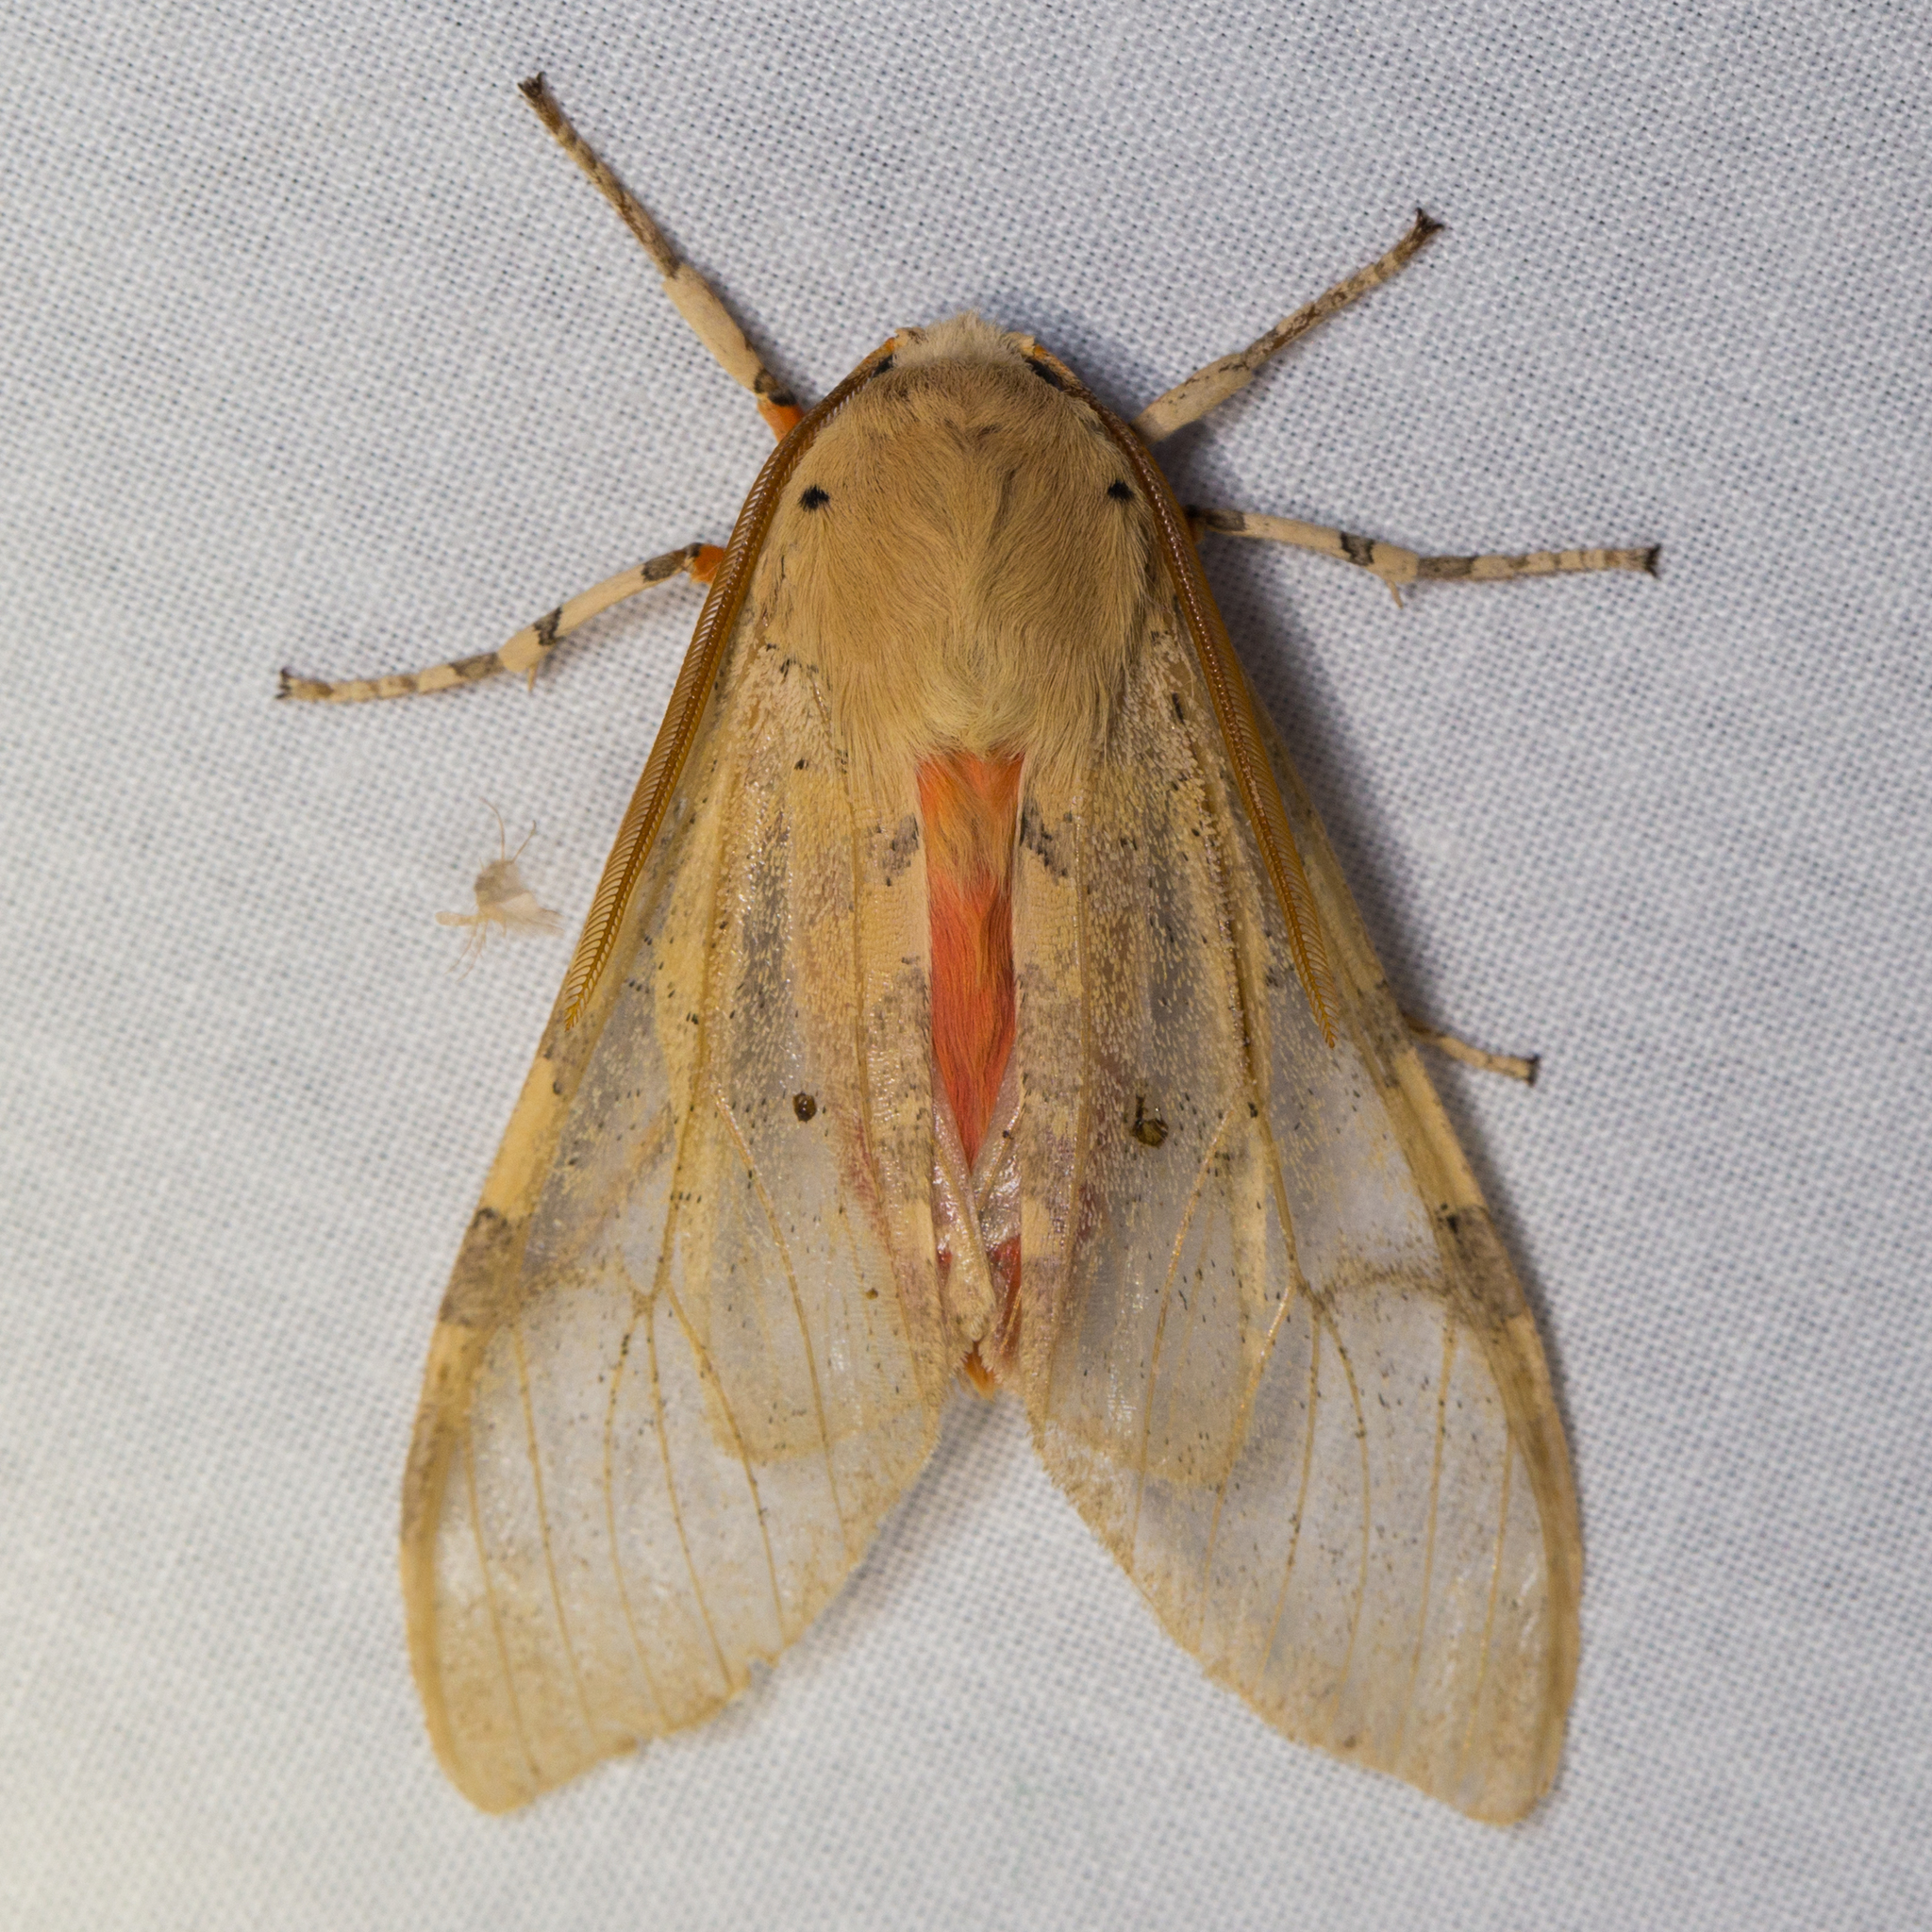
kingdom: Animalia
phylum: Arthropoda
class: Insecta
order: Lepidoptera
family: Erebidae
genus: Hemihyalea
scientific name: Hemihyalea edwardsii
